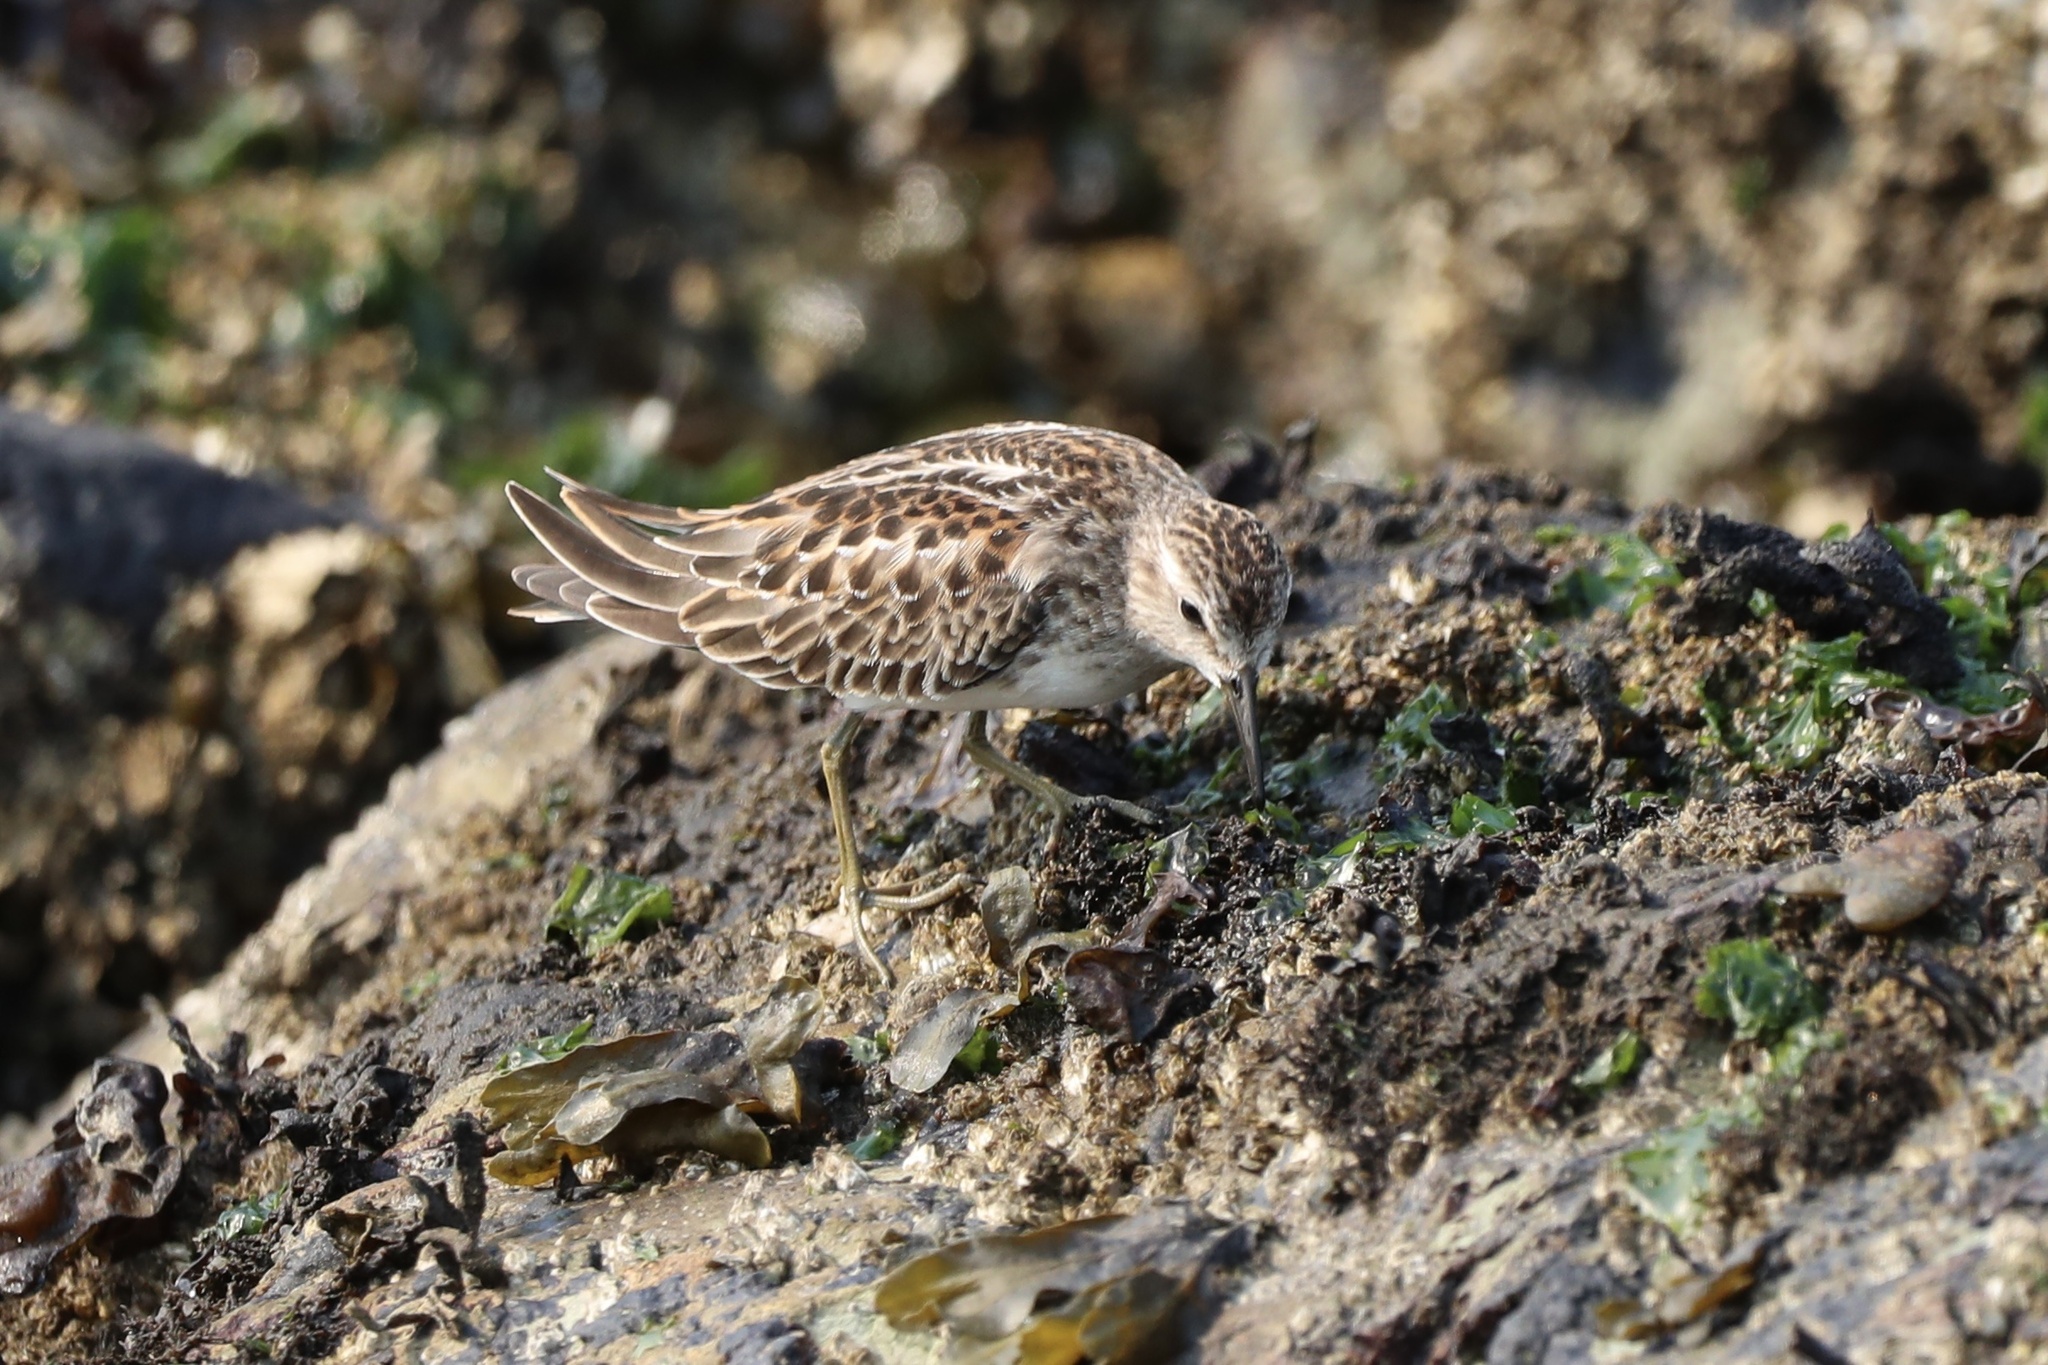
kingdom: Animalia
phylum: Chordata
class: Aves
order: Charadriiformes
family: Scolopacidae
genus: Calidris
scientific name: Calidris minutilla
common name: Least sandpiper
